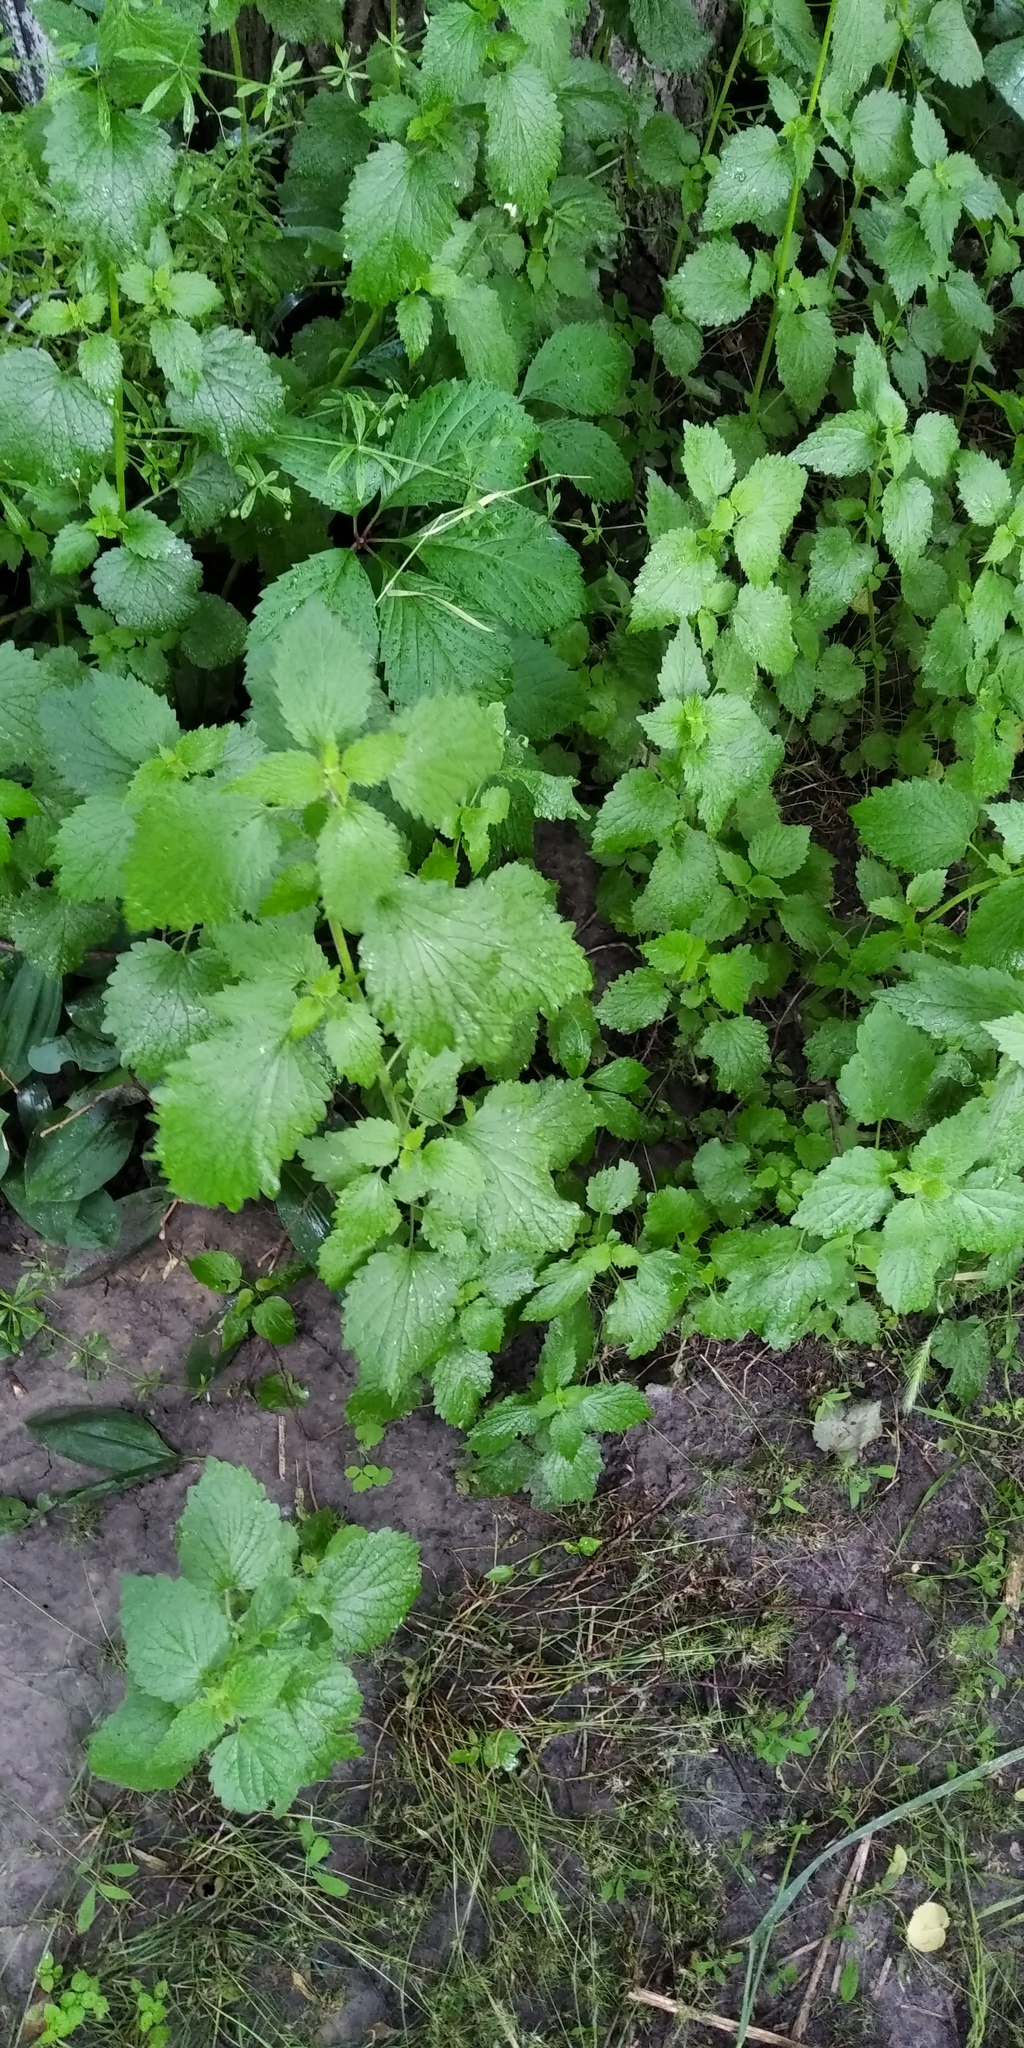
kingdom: Plantae
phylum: Tracheophyta
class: Magnoliopsida
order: Lamiales
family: Lamiaceae
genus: Ballota
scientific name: Ballota nigra
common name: Black horehound
